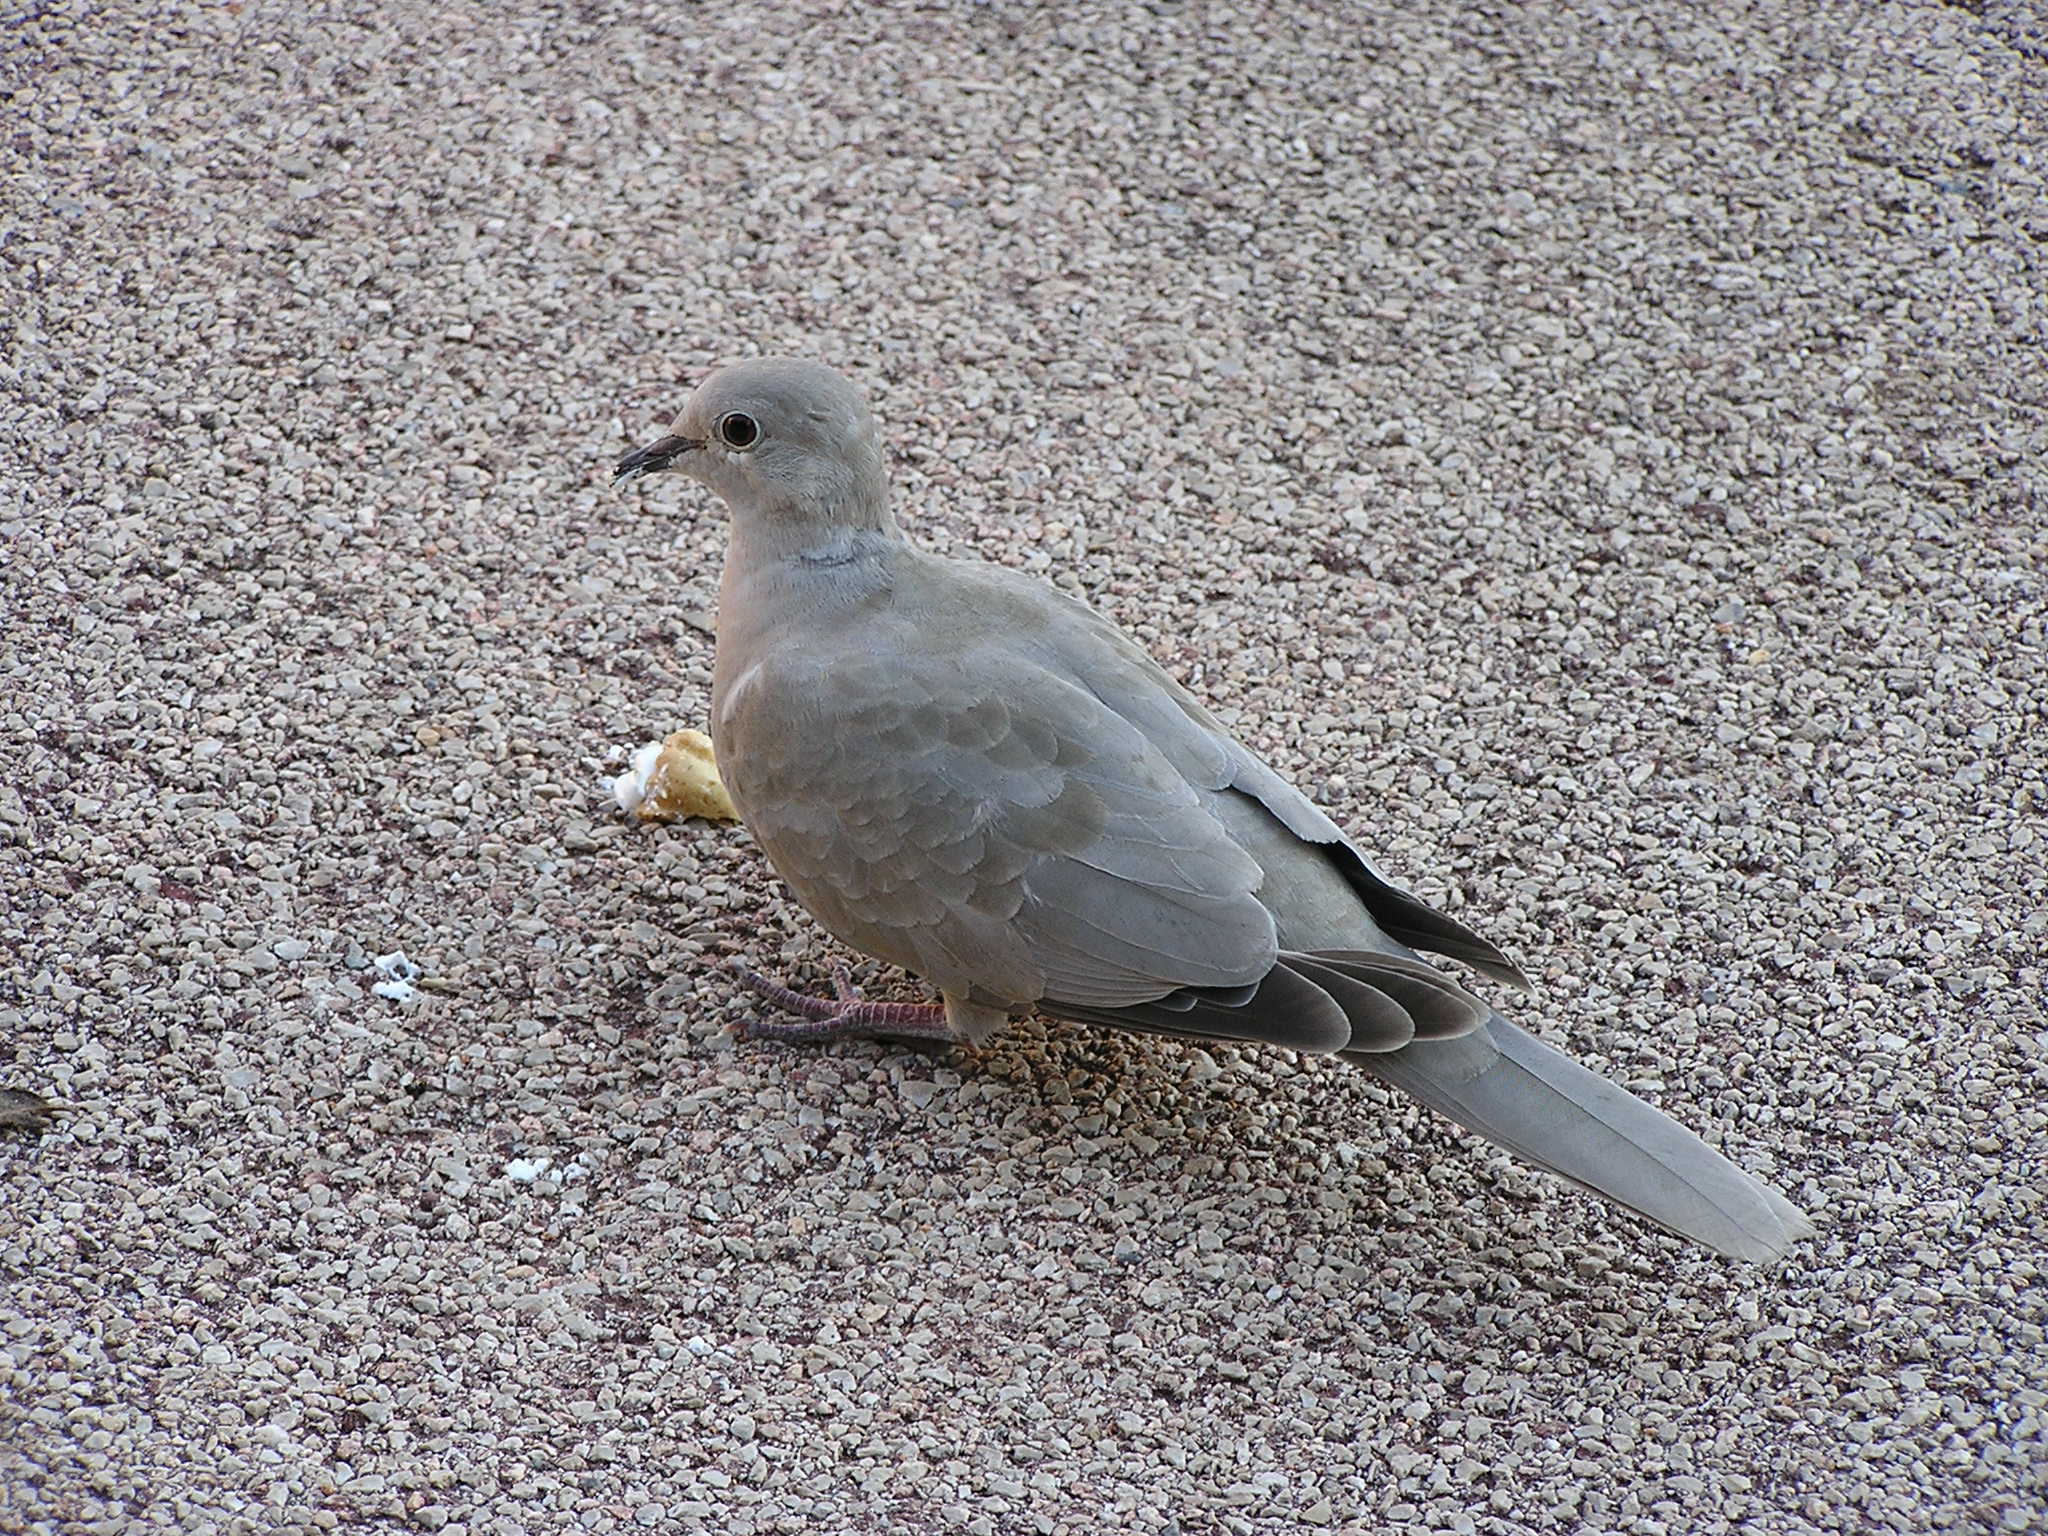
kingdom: Animalia
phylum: Chordata
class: Aves
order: Columbiformes
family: Columbidae
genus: Streptopelia
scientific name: Streptopelia decaocto
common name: Eurasian collared dove
